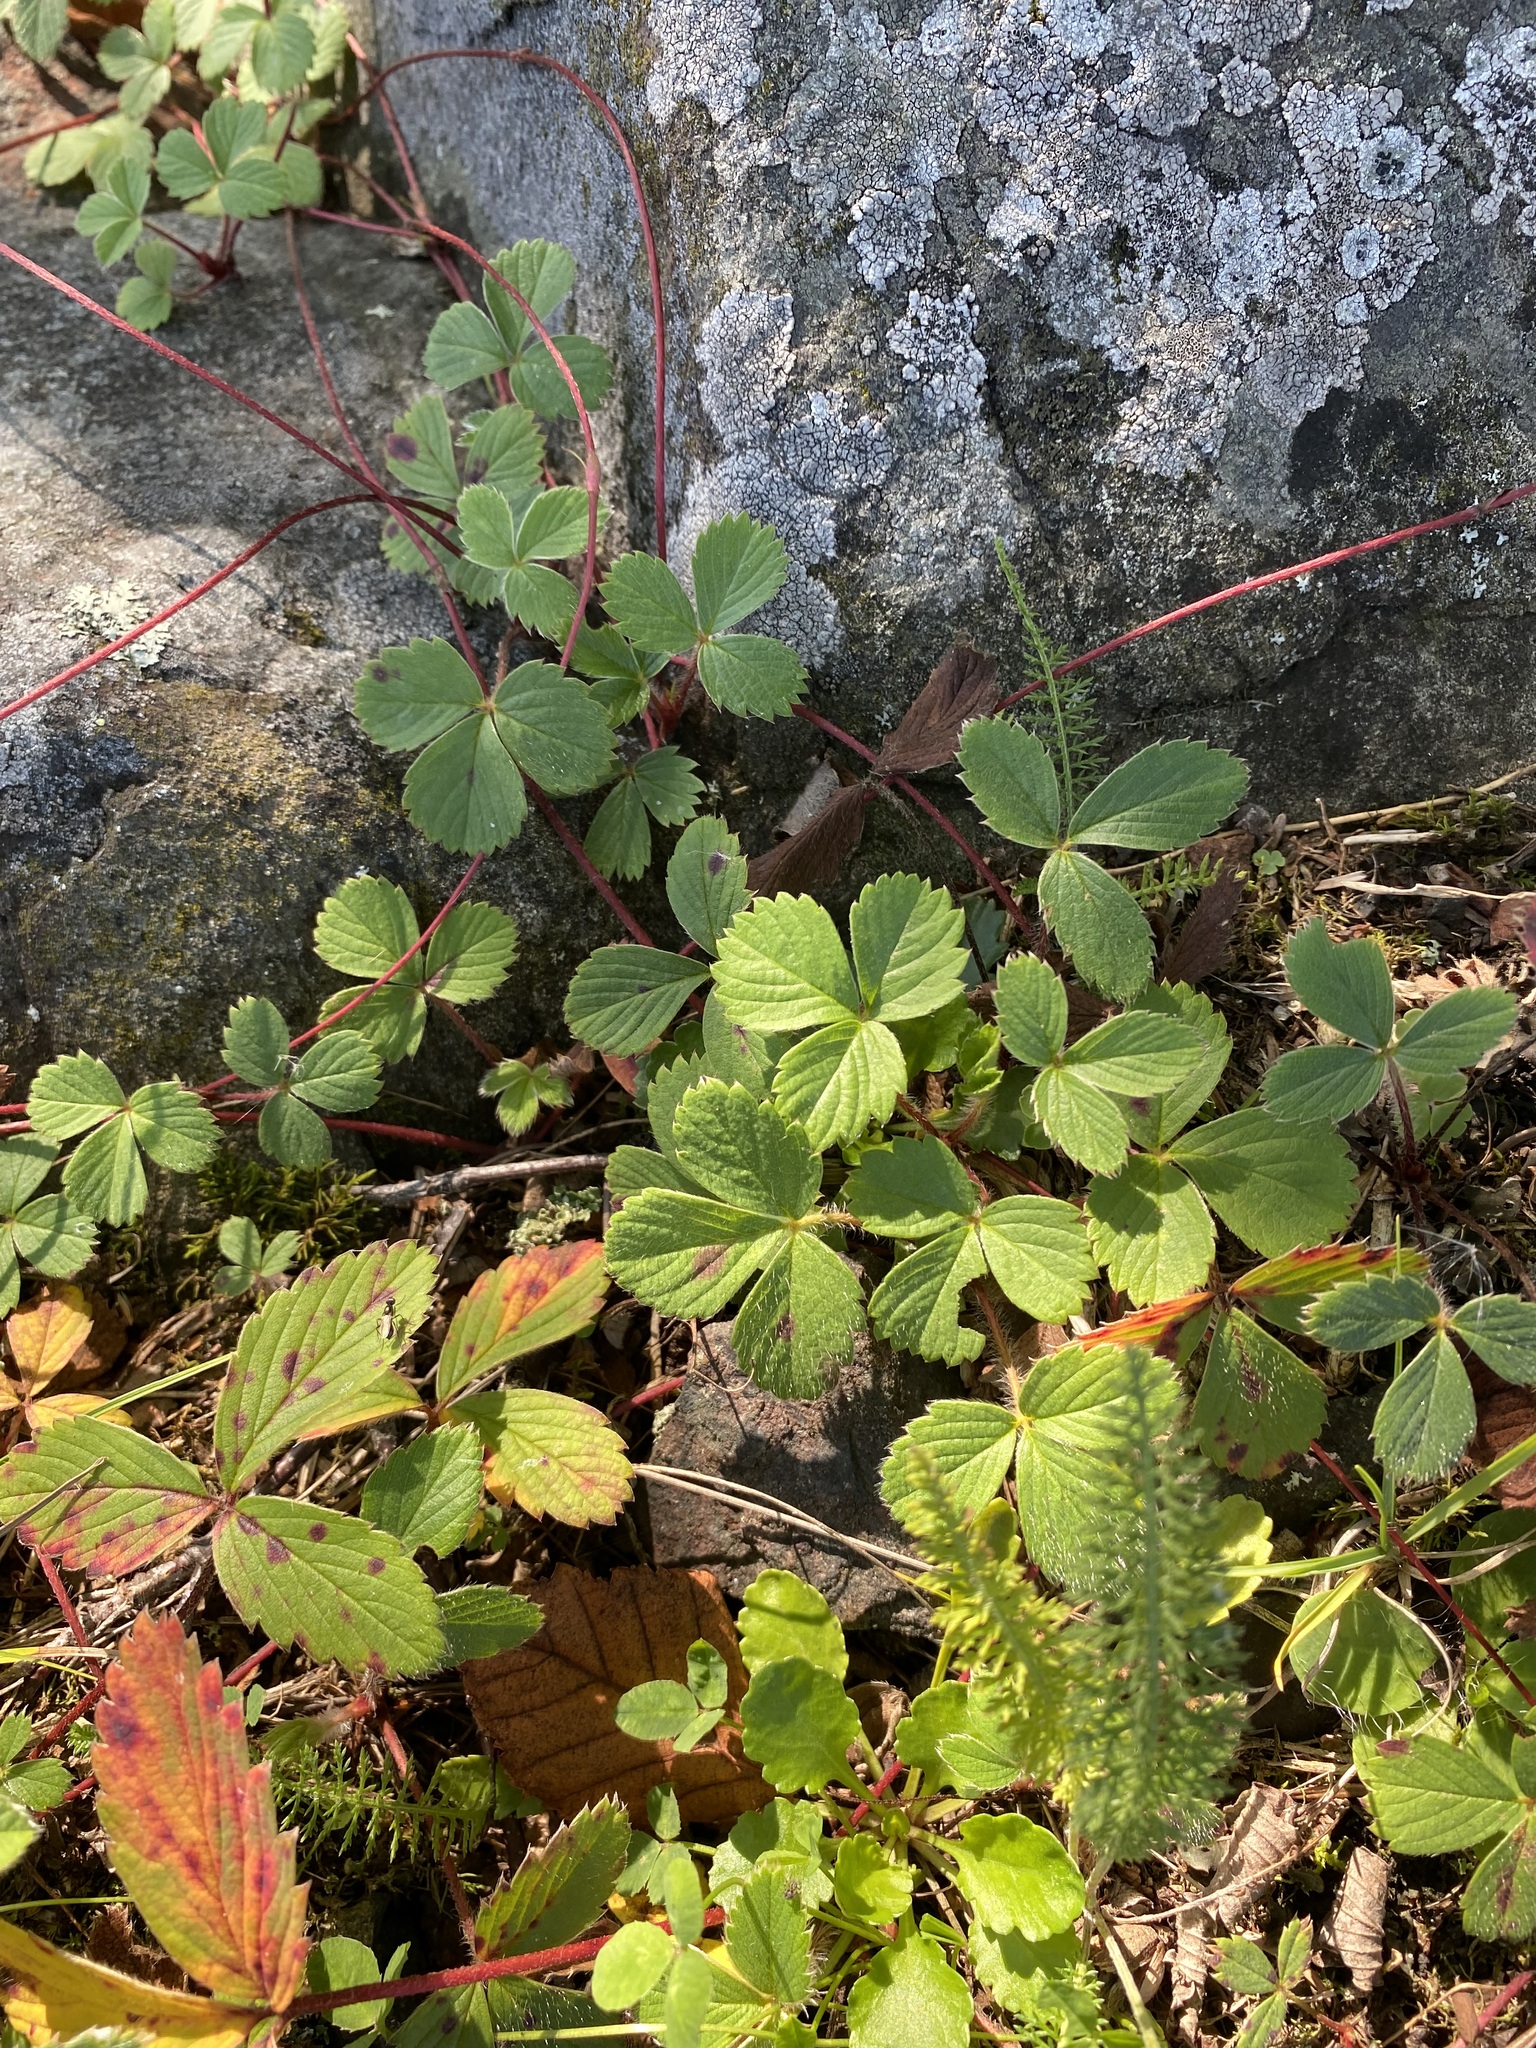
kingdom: Plantae
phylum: Tracheophyta
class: Magnoliopsida
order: Rosales
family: Rosaceae
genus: Fragaria
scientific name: Fragaria virginiana
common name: Thickleaved wild strawberry
